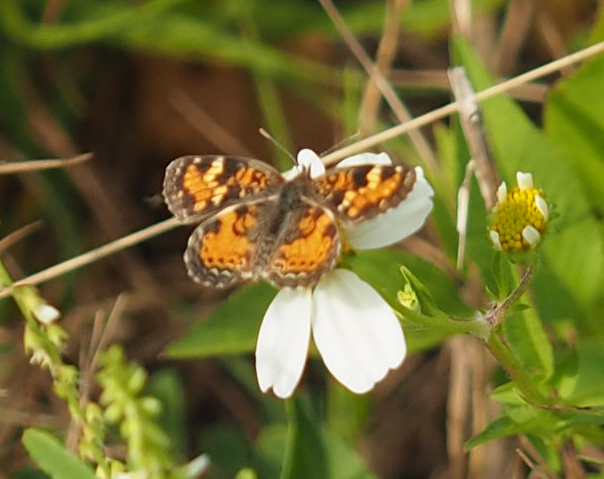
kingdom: Animalia
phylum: Arthropoda
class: Insecta
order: Lepidoptera
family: Nymphalidae
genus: Phyciodes
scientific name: Phyciodes phaon
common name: Phaon crescent
